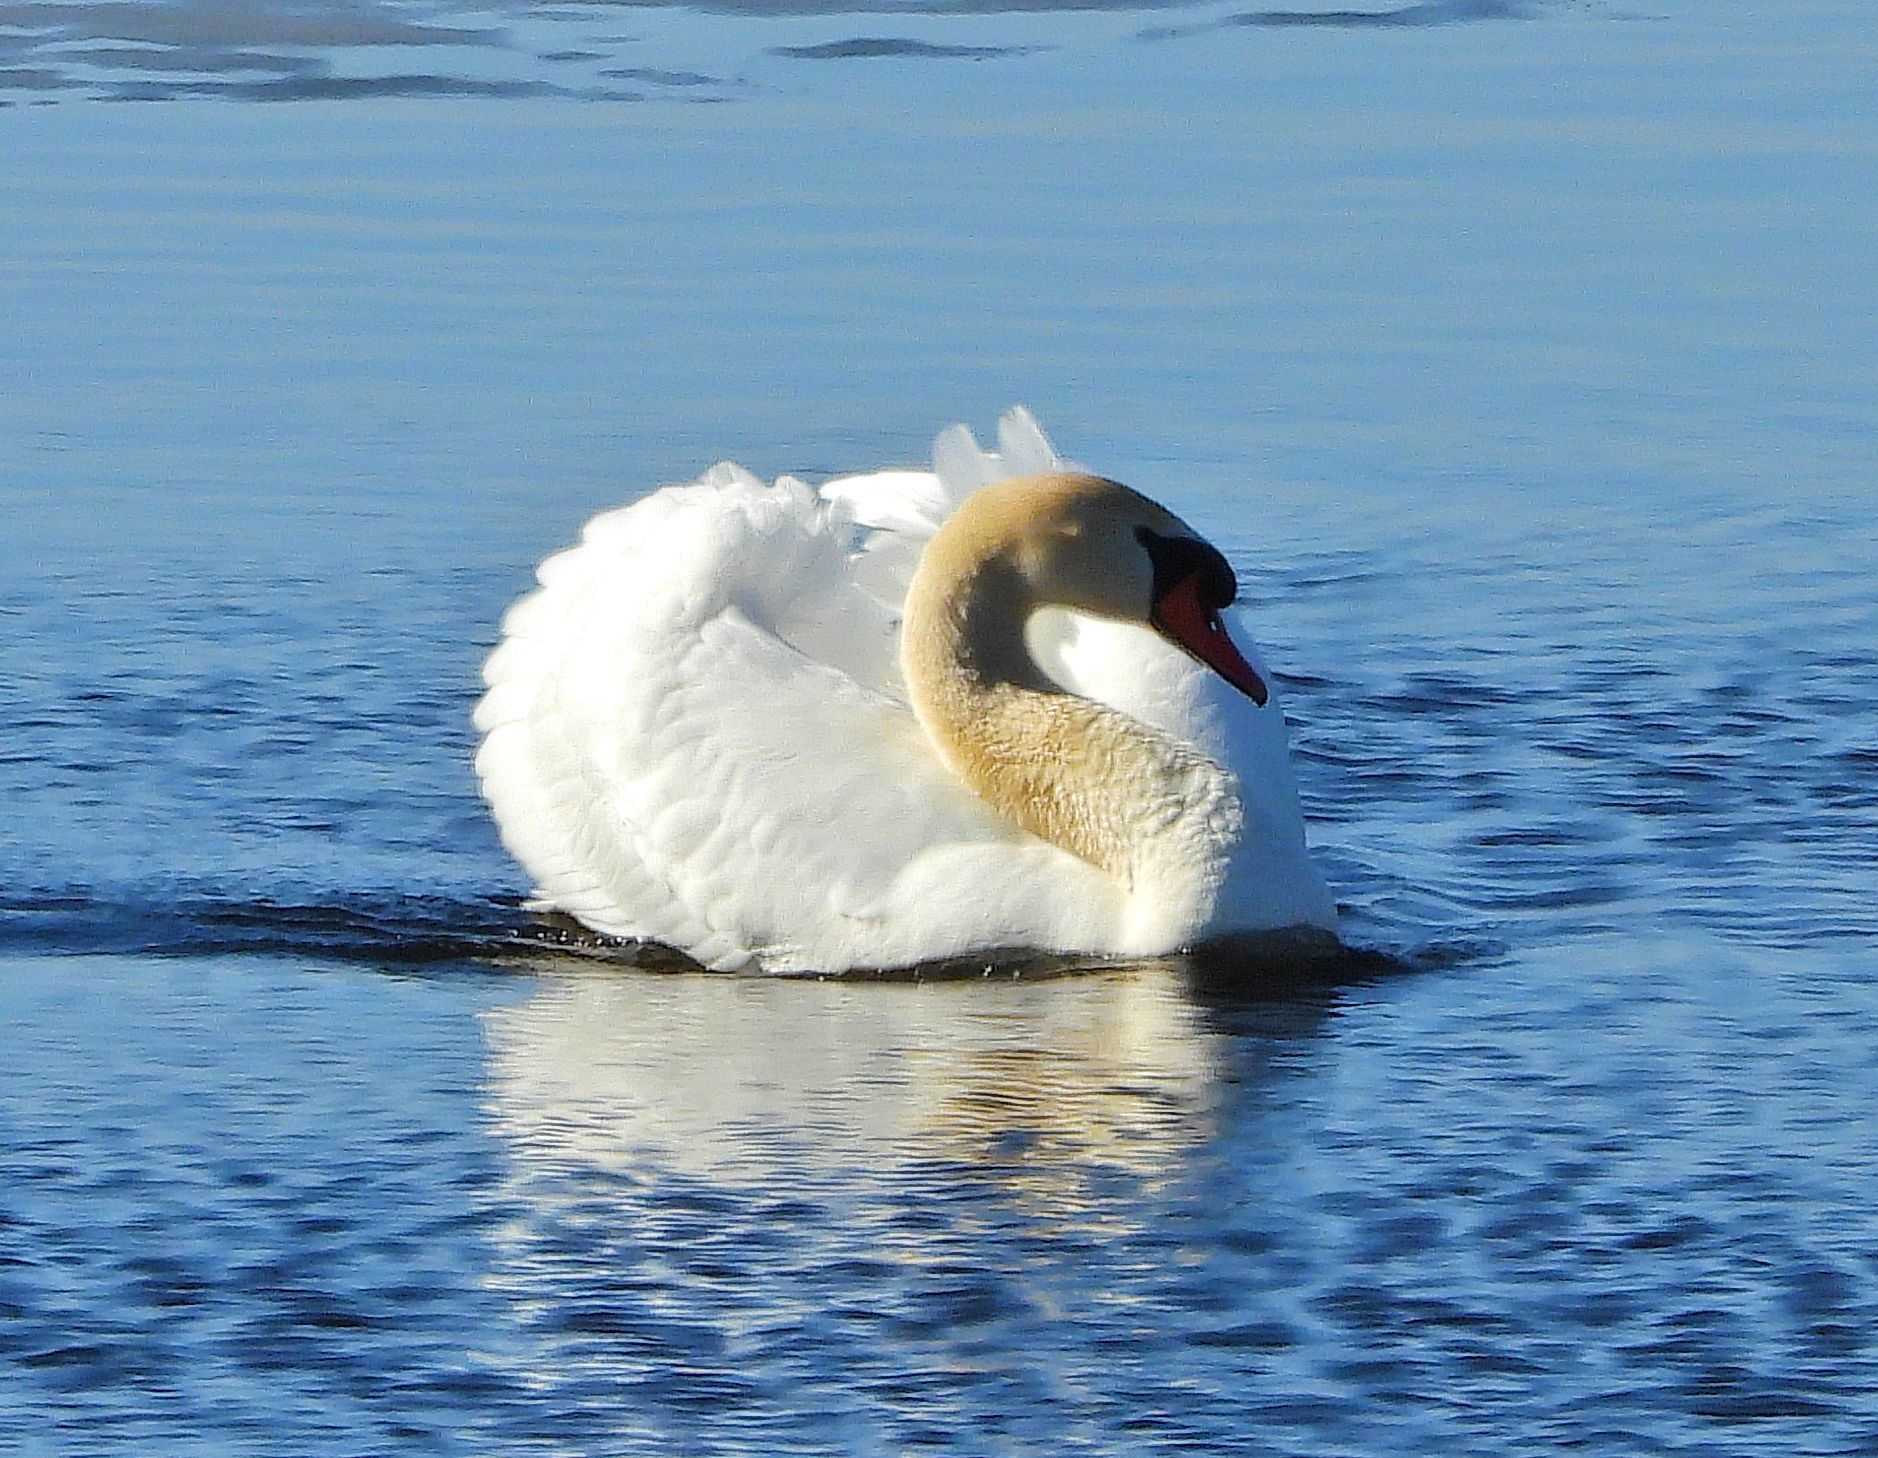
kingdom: Animalia
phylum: Chordata
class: Aves
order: Anseriformes
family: Anatidae
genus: Cygnus
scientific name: Cygnus olor
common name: Mute swan
